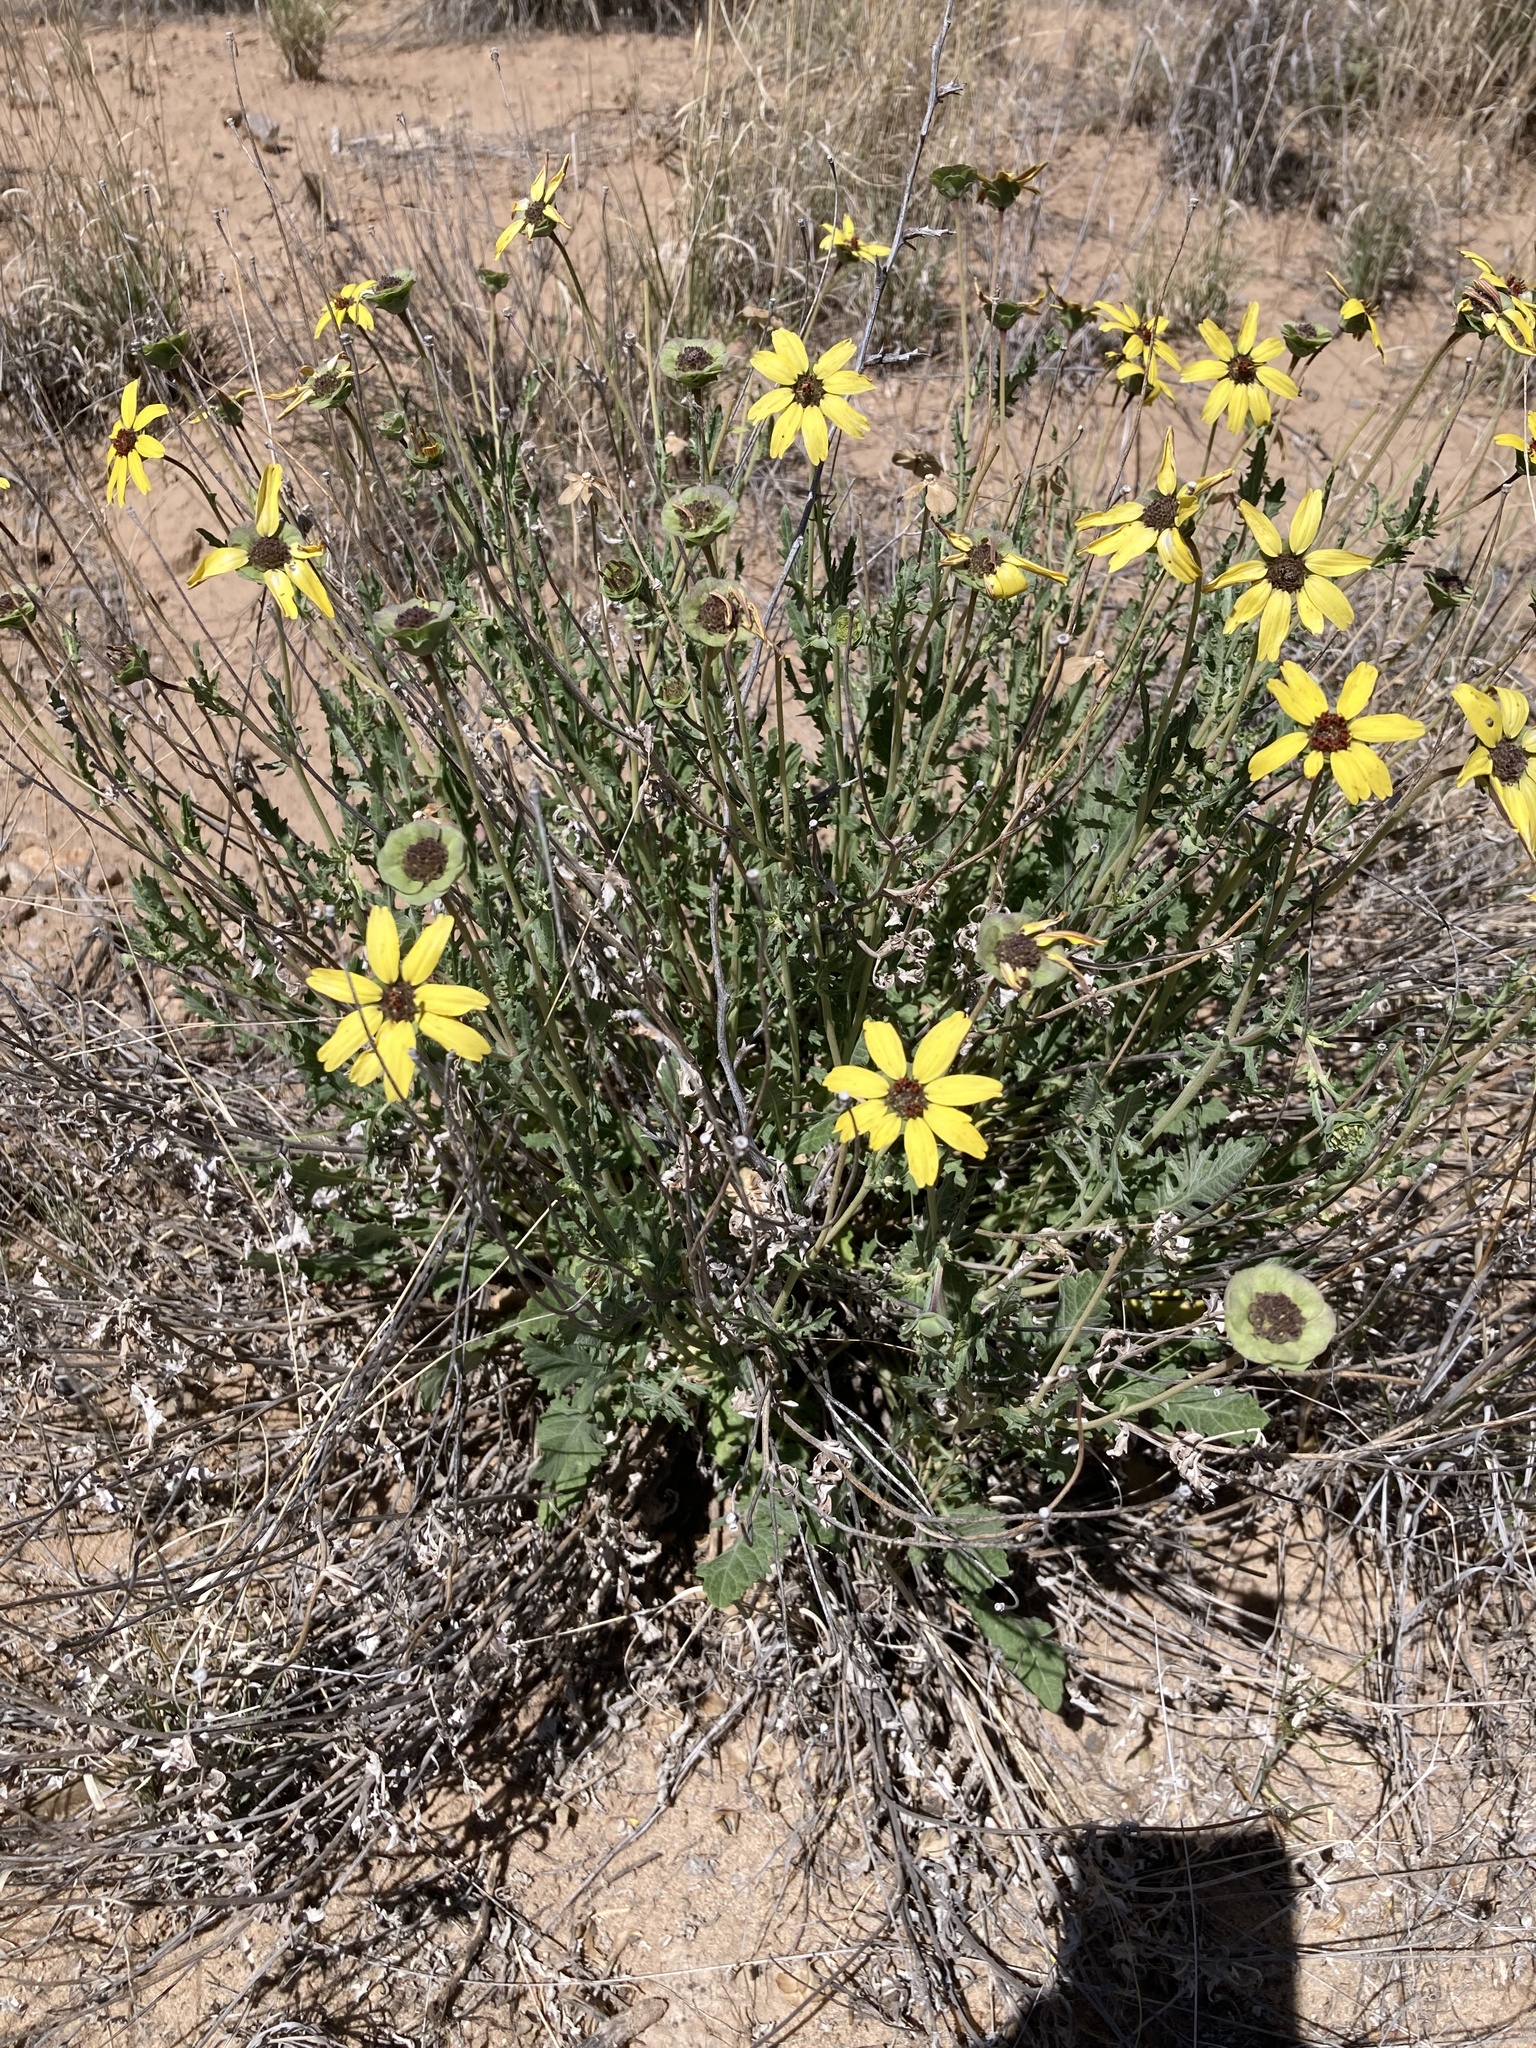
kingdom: Plantae
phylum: Tracheophyta
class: Magnoliopsida
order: Asterales
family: Asteraceae
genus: Berlandiera
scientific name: Berlandiera lyrata
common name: Chocolate-flower
